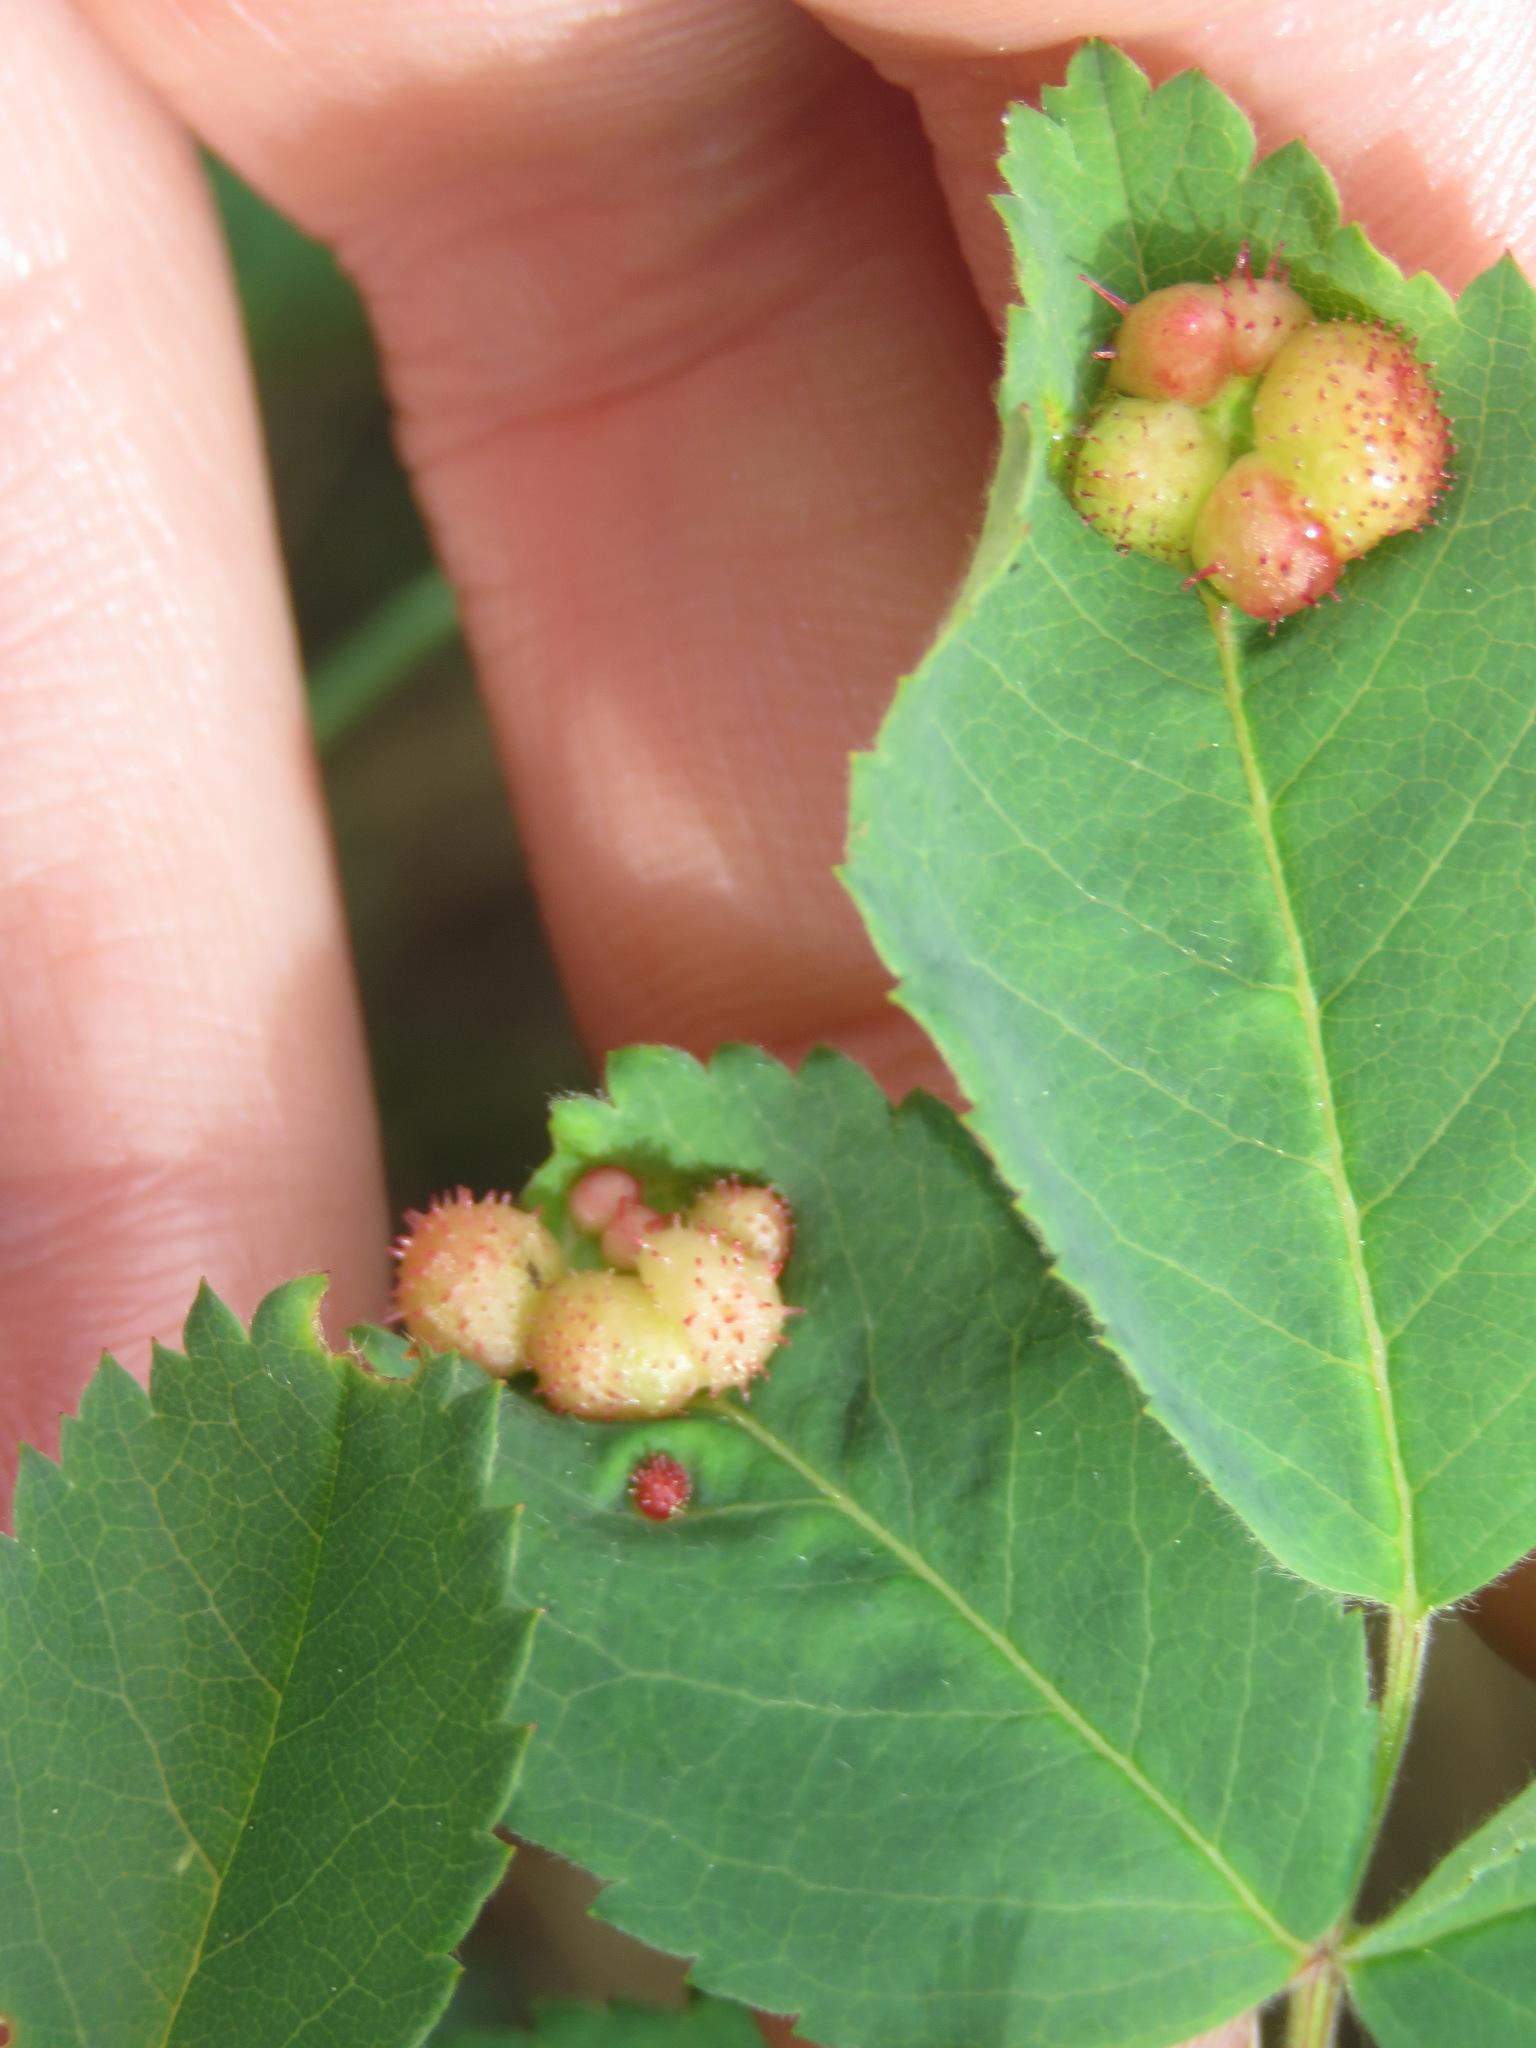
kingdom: Animalia
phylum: Arthropoda
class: Insecta
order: Hymenoptera
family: Cynipidae
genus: Diplolepis
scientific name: Diplolepis polita
